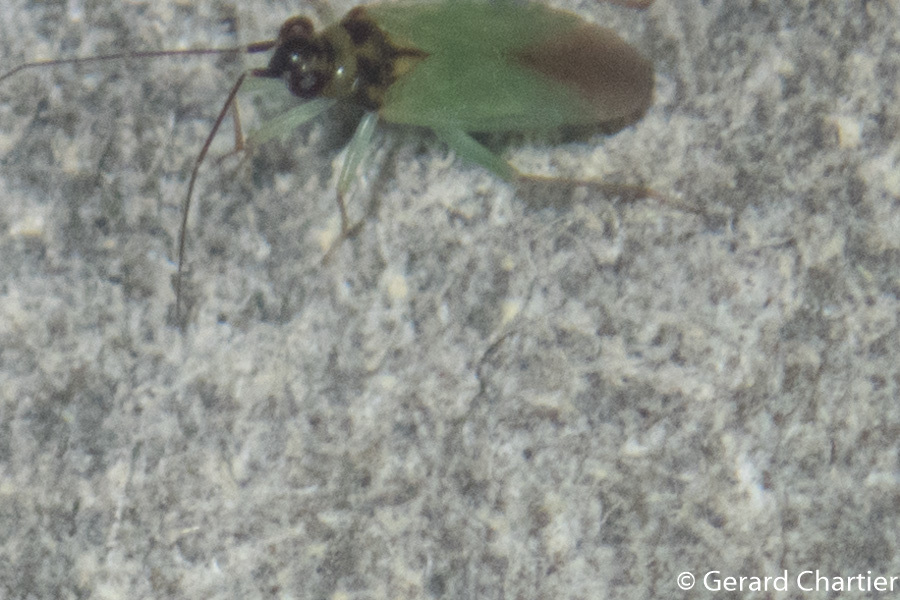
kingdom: Animalia
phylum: Arthropoda
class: Insecta
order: Hemiptera
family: Miridae
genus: Cyrtorhinus
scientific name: Cyrtorhinus lividipennis
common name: Plant bug
